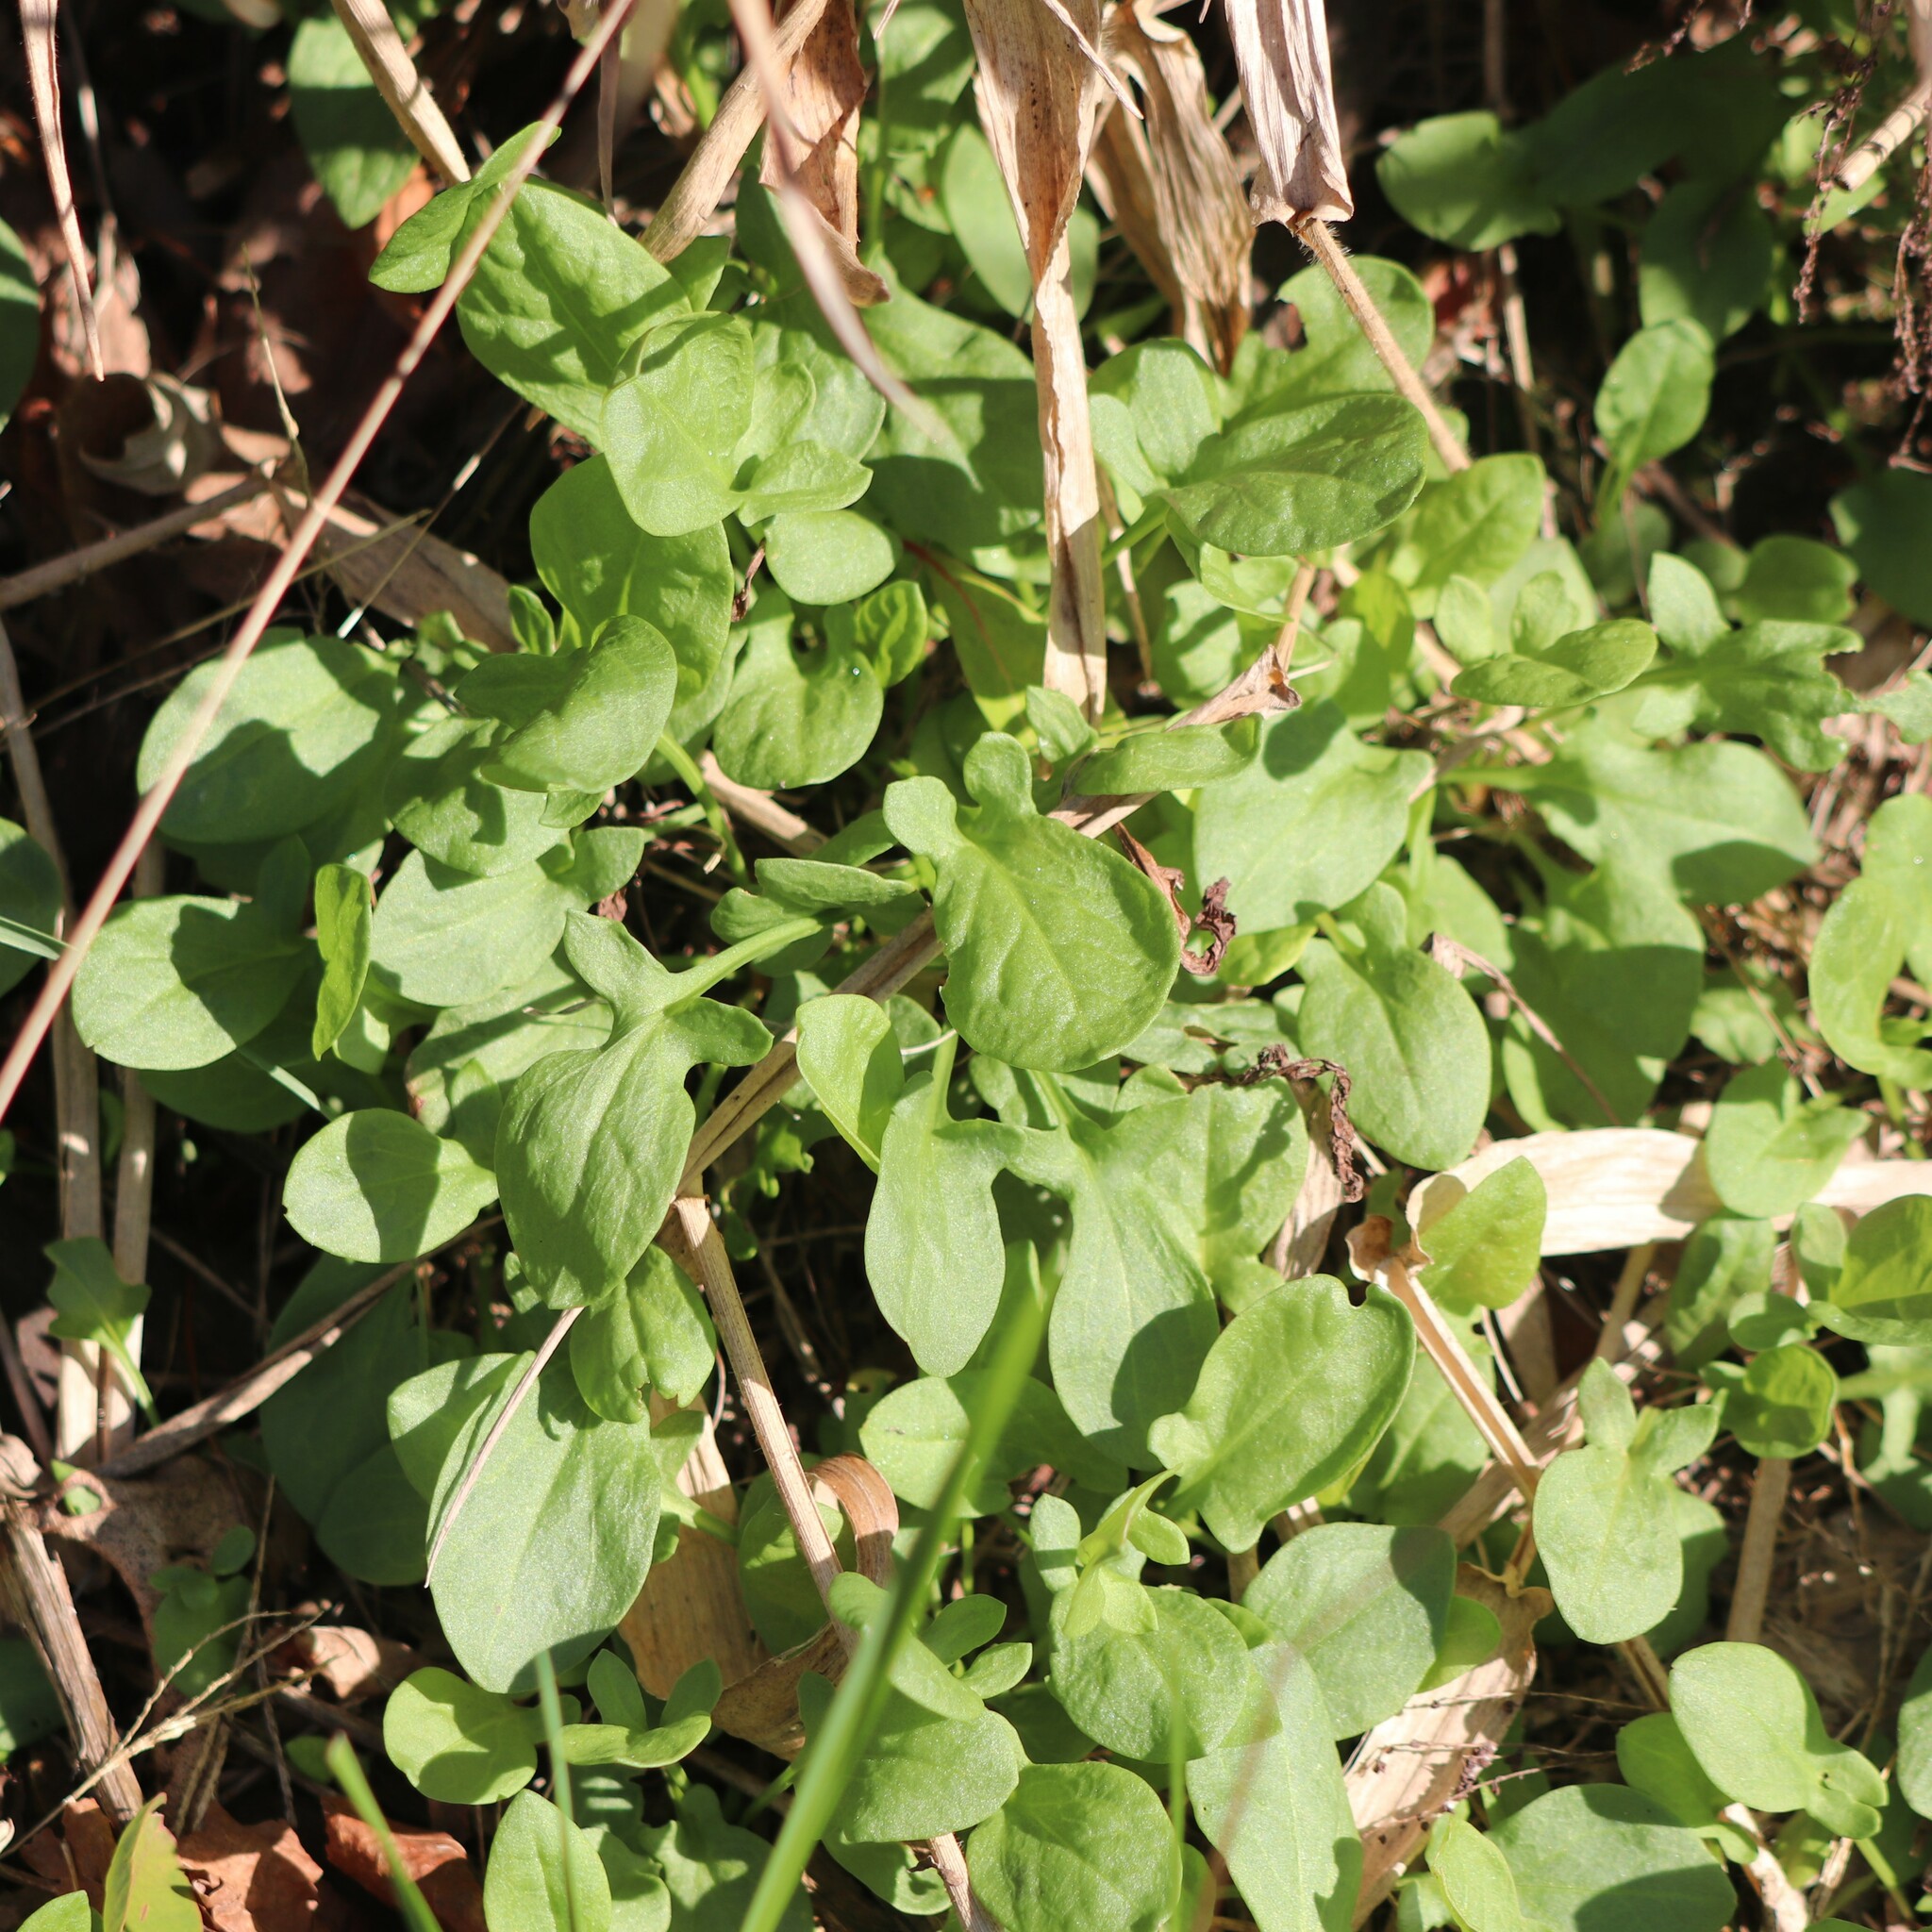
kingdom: Plantae
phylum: Tracheophyta
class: Magnoliopsida
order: Caryophyllales
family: Polygonaceae
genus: Rumex
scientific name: Rumex acetosella
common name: Common sheep sorrel
